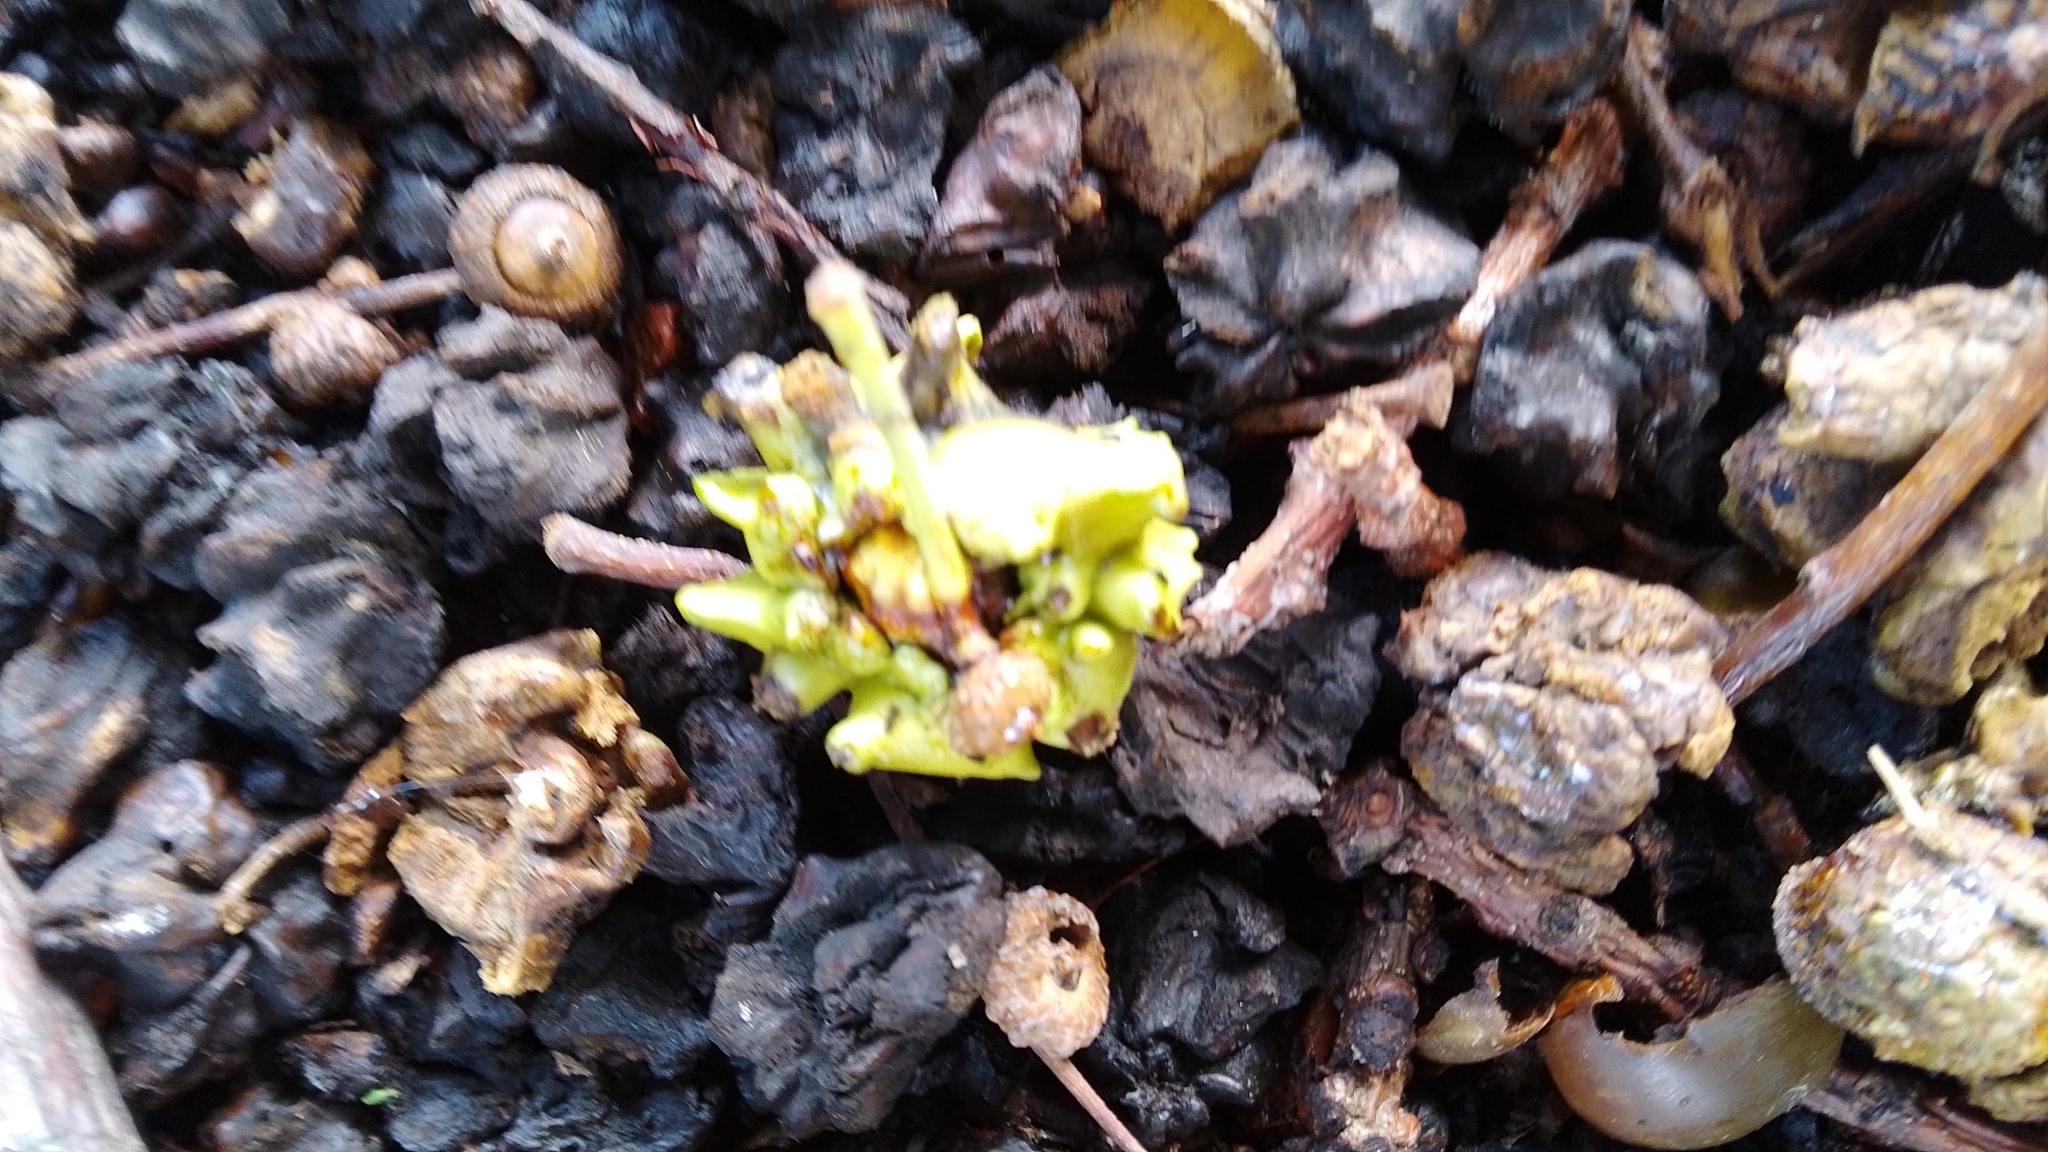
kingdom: Animalia
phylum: Arthropoda
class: Insecta
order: Hymenoptera
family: Cynipidae
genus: Andricus
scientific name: Andricus quercuscalicis
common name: Knopper gall
